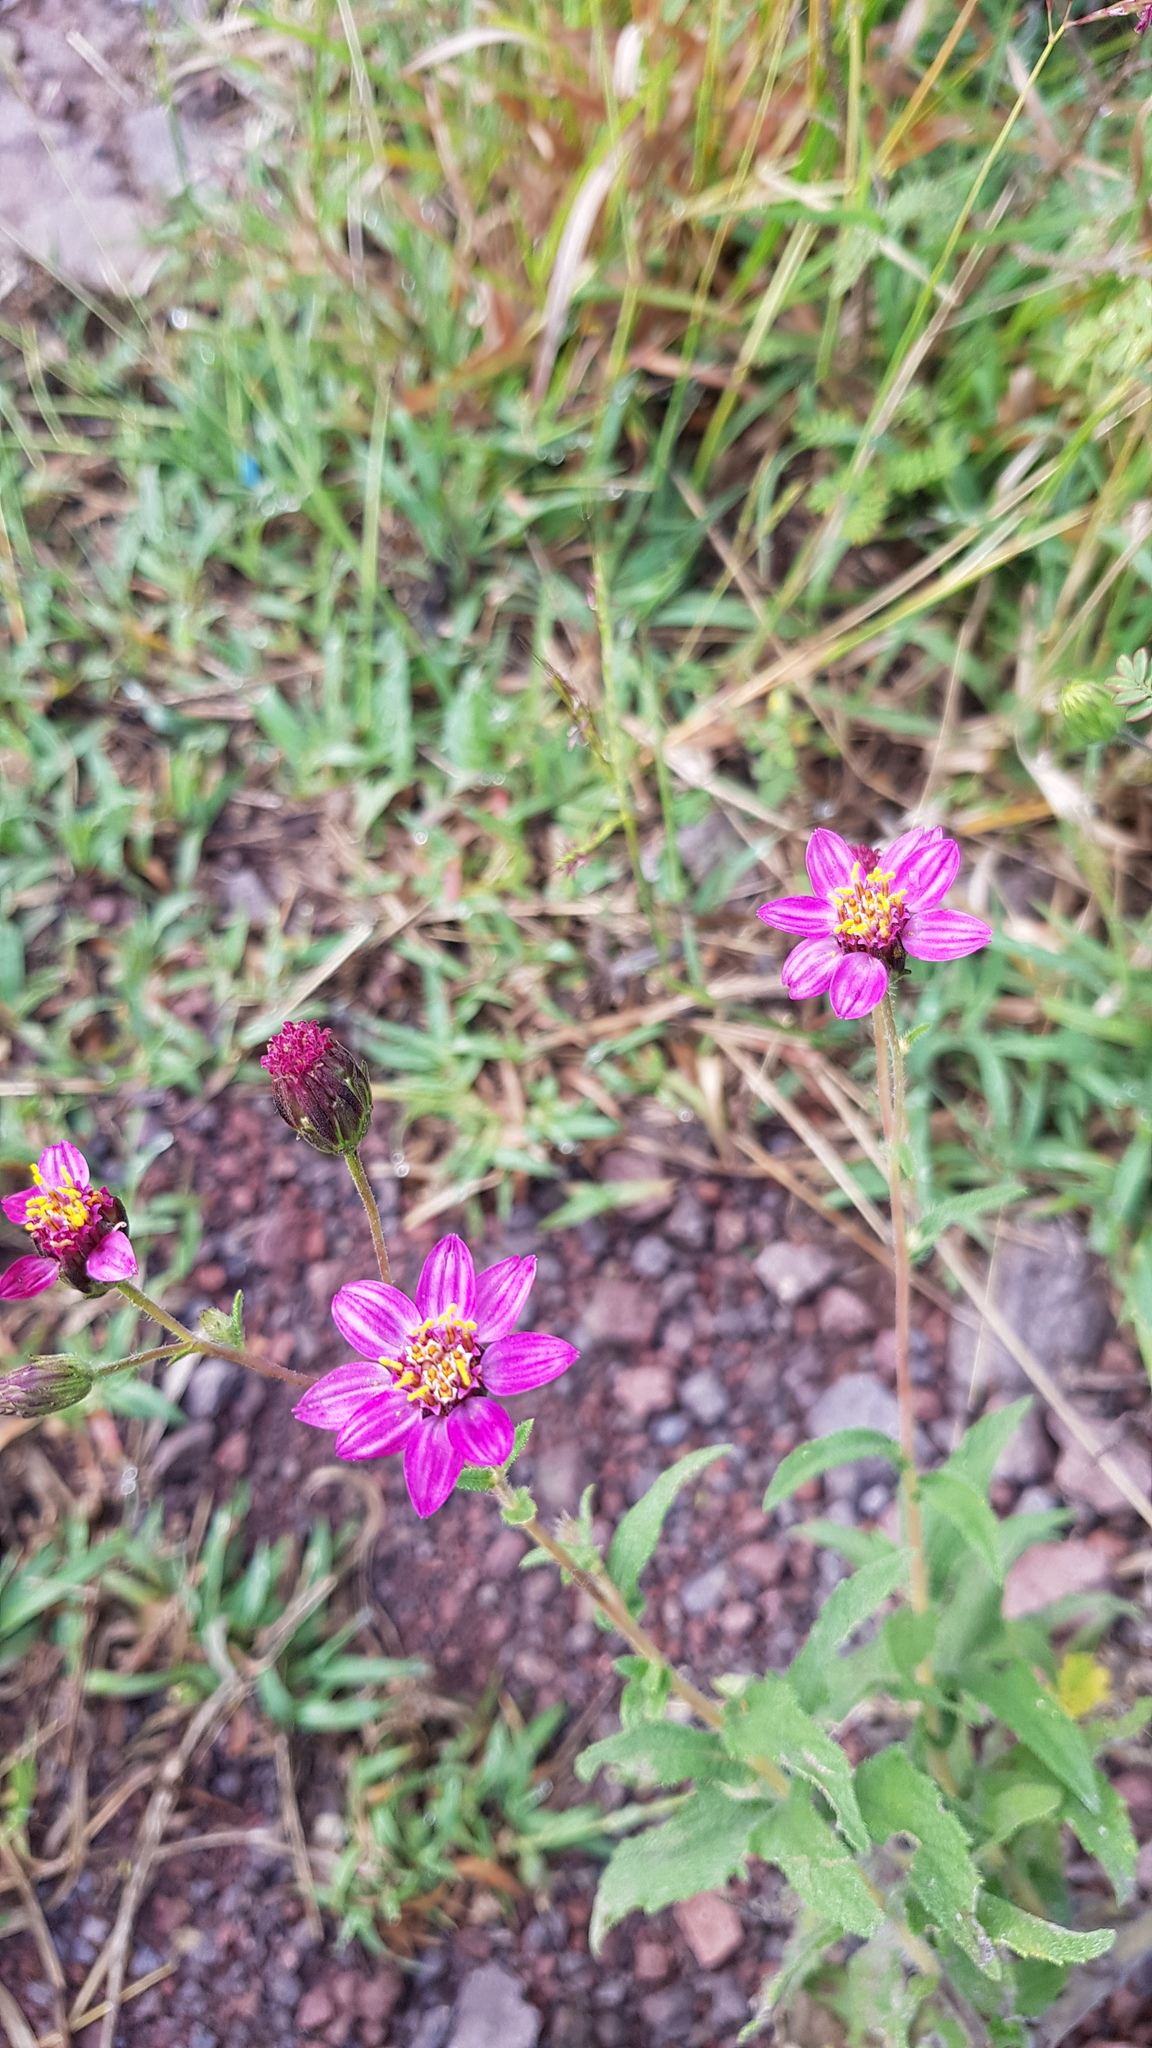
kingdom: Plantae
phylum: Tracheophyta
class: Magnoliopsida
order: Asterales
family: Asteraceae
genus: Simsia
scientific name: Simsia sanguinea
